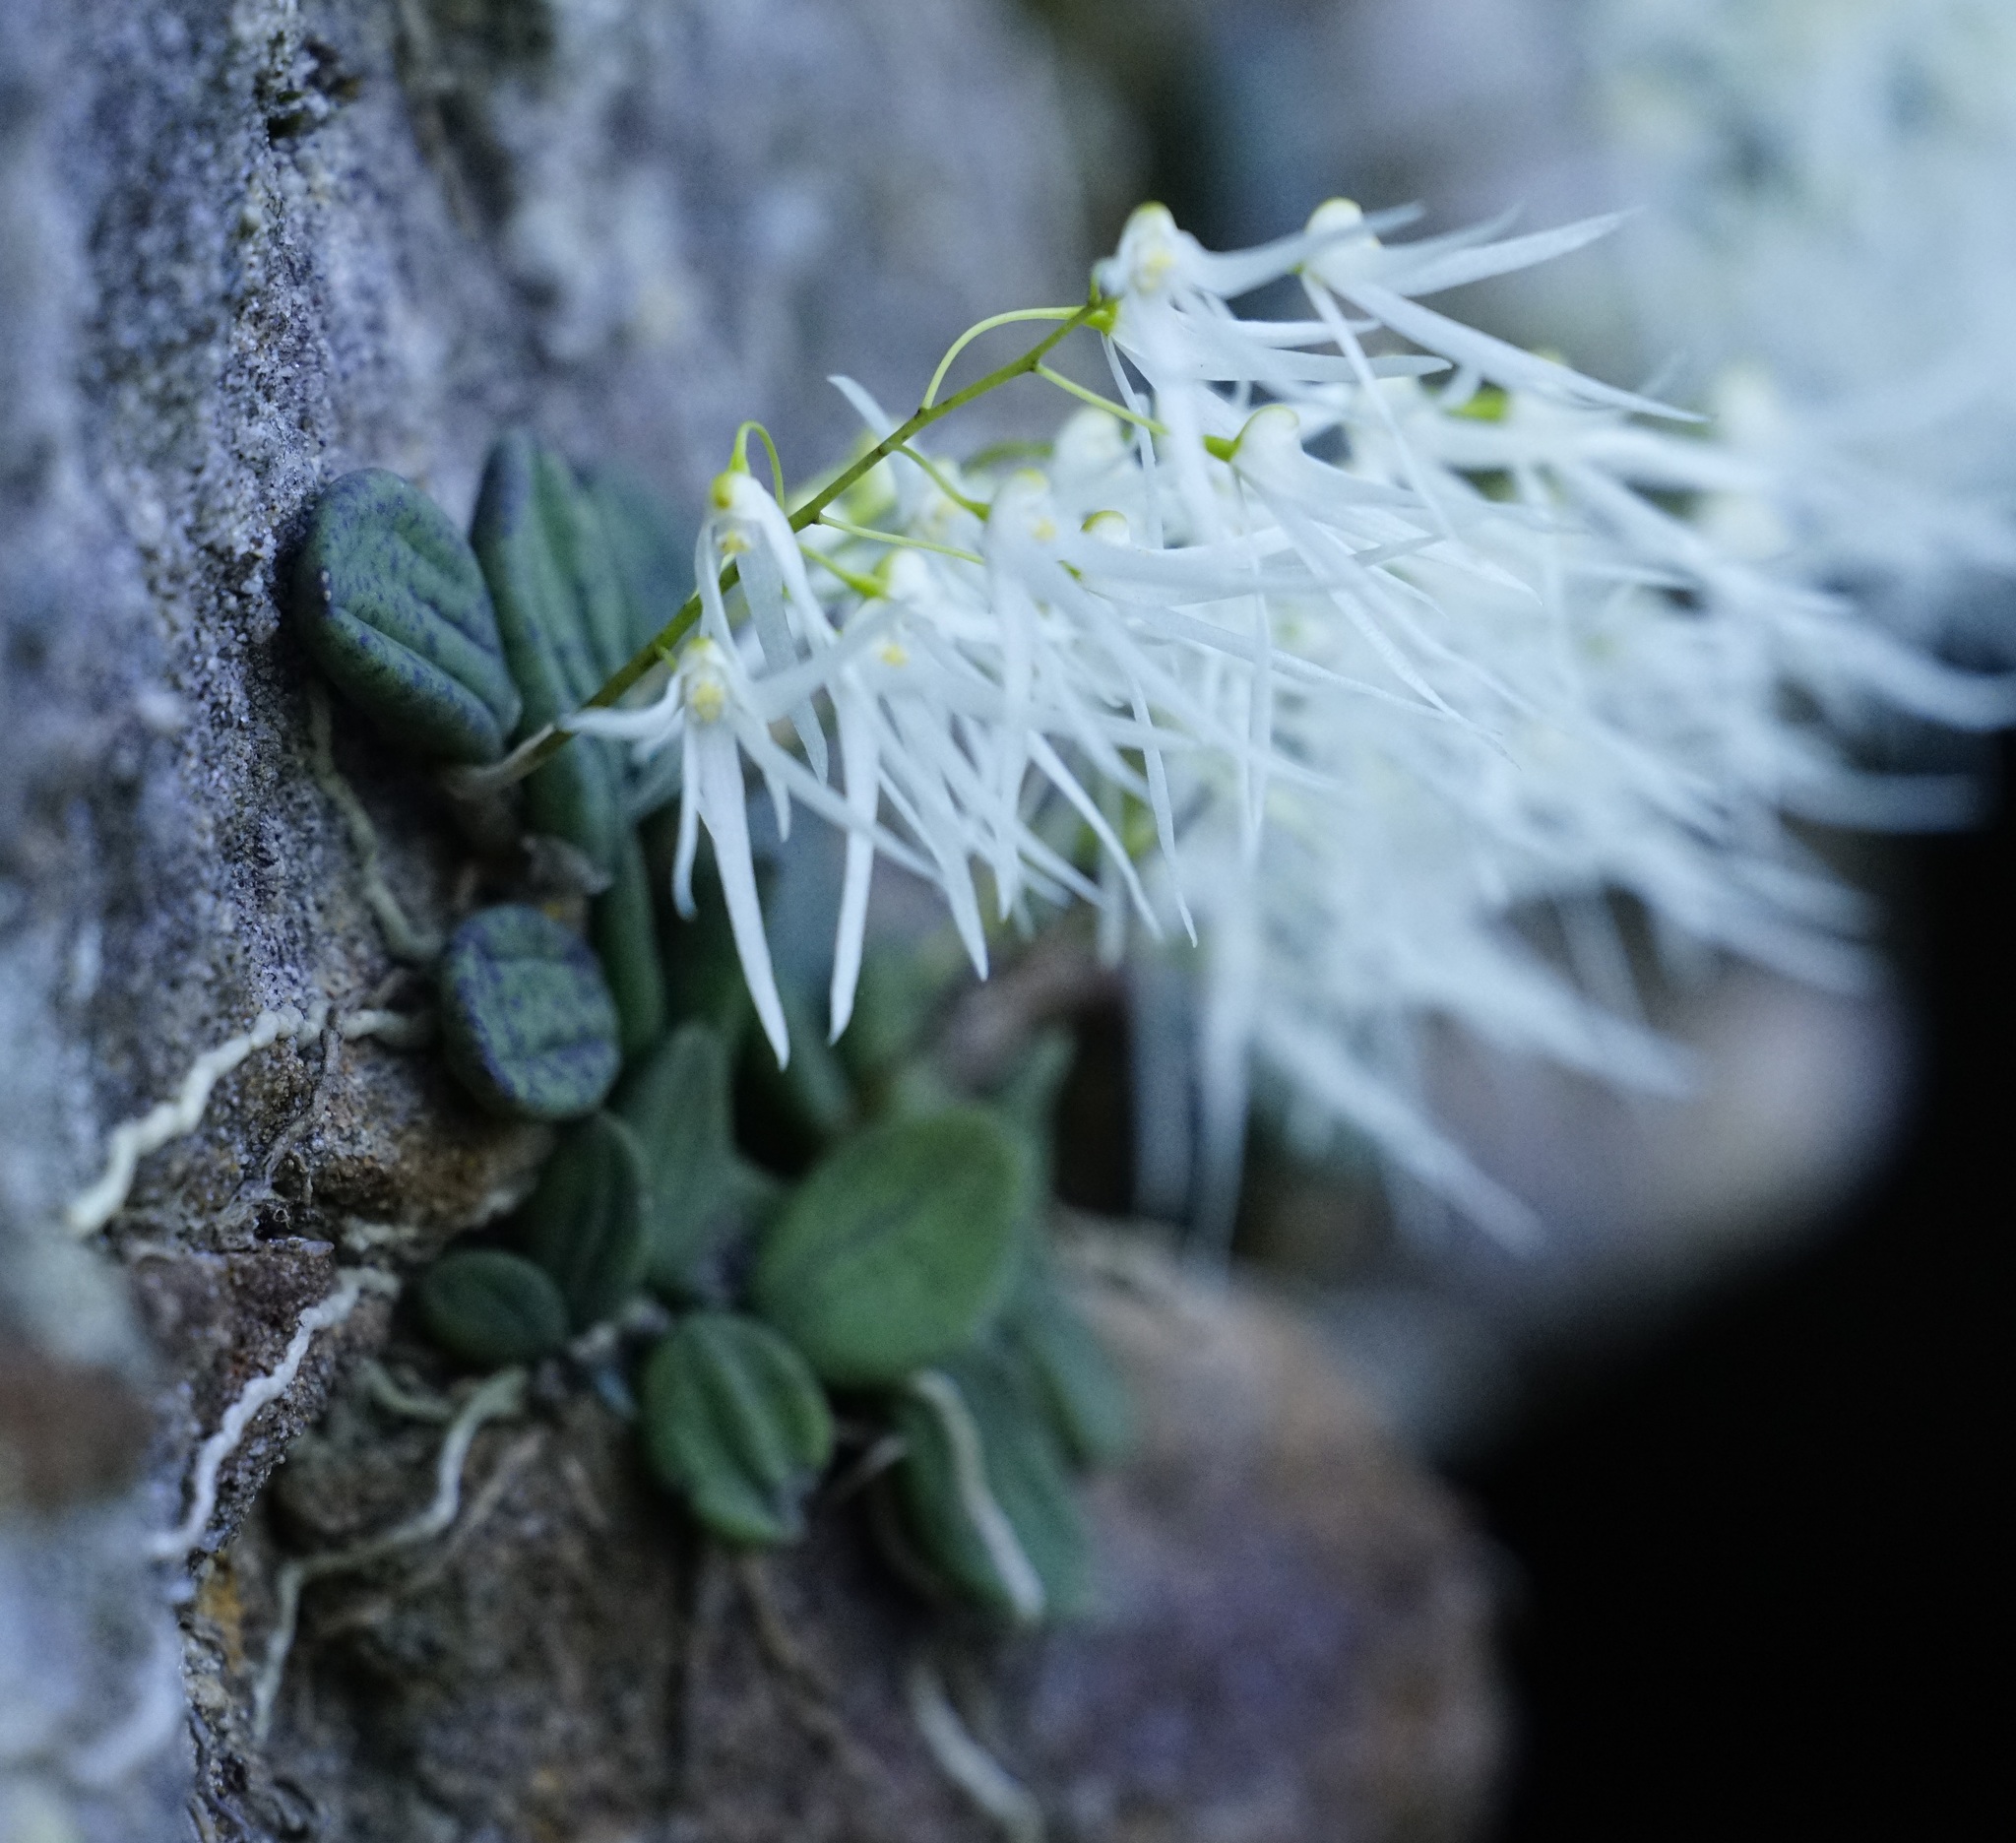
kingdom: Plantae
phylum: Tracheophyta
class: Liliopsida
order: Asparagales
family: Orchidaceae
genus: Dendrobium
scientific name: Dendrobium linguiforme
